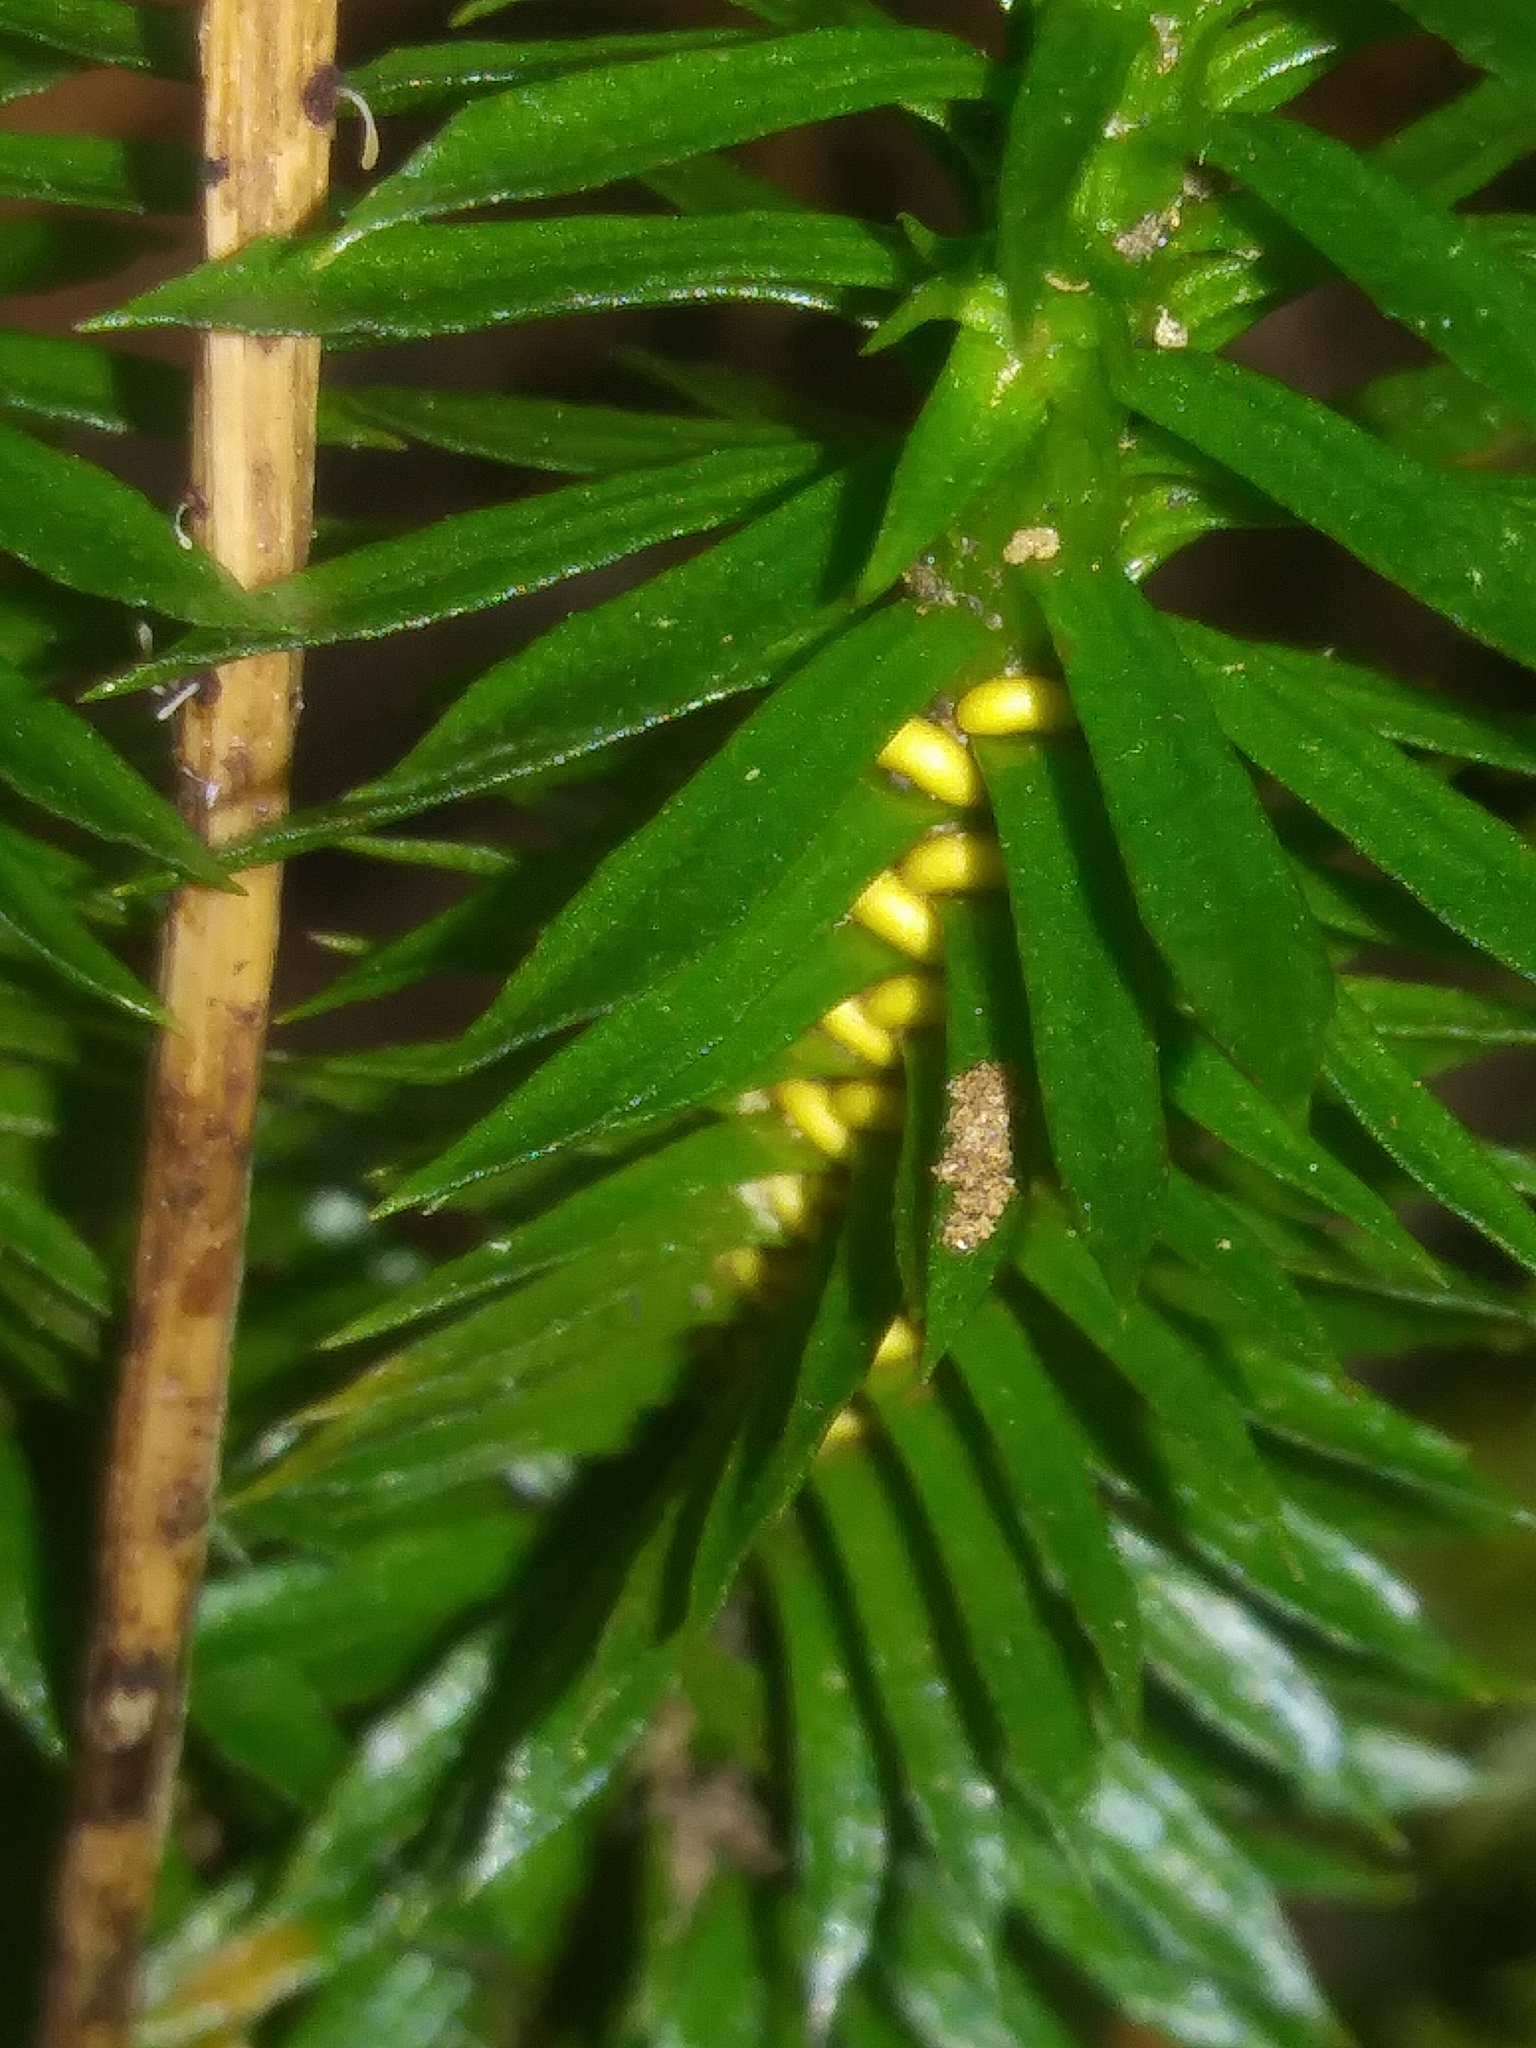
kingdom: Plantae
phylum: Tracheophyta
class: Lycopodiopsida
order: Lycopodiales
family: Lycopodiaceae
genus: Huperzia
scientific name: Huperzia lucidula
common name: Shining clubmoss
